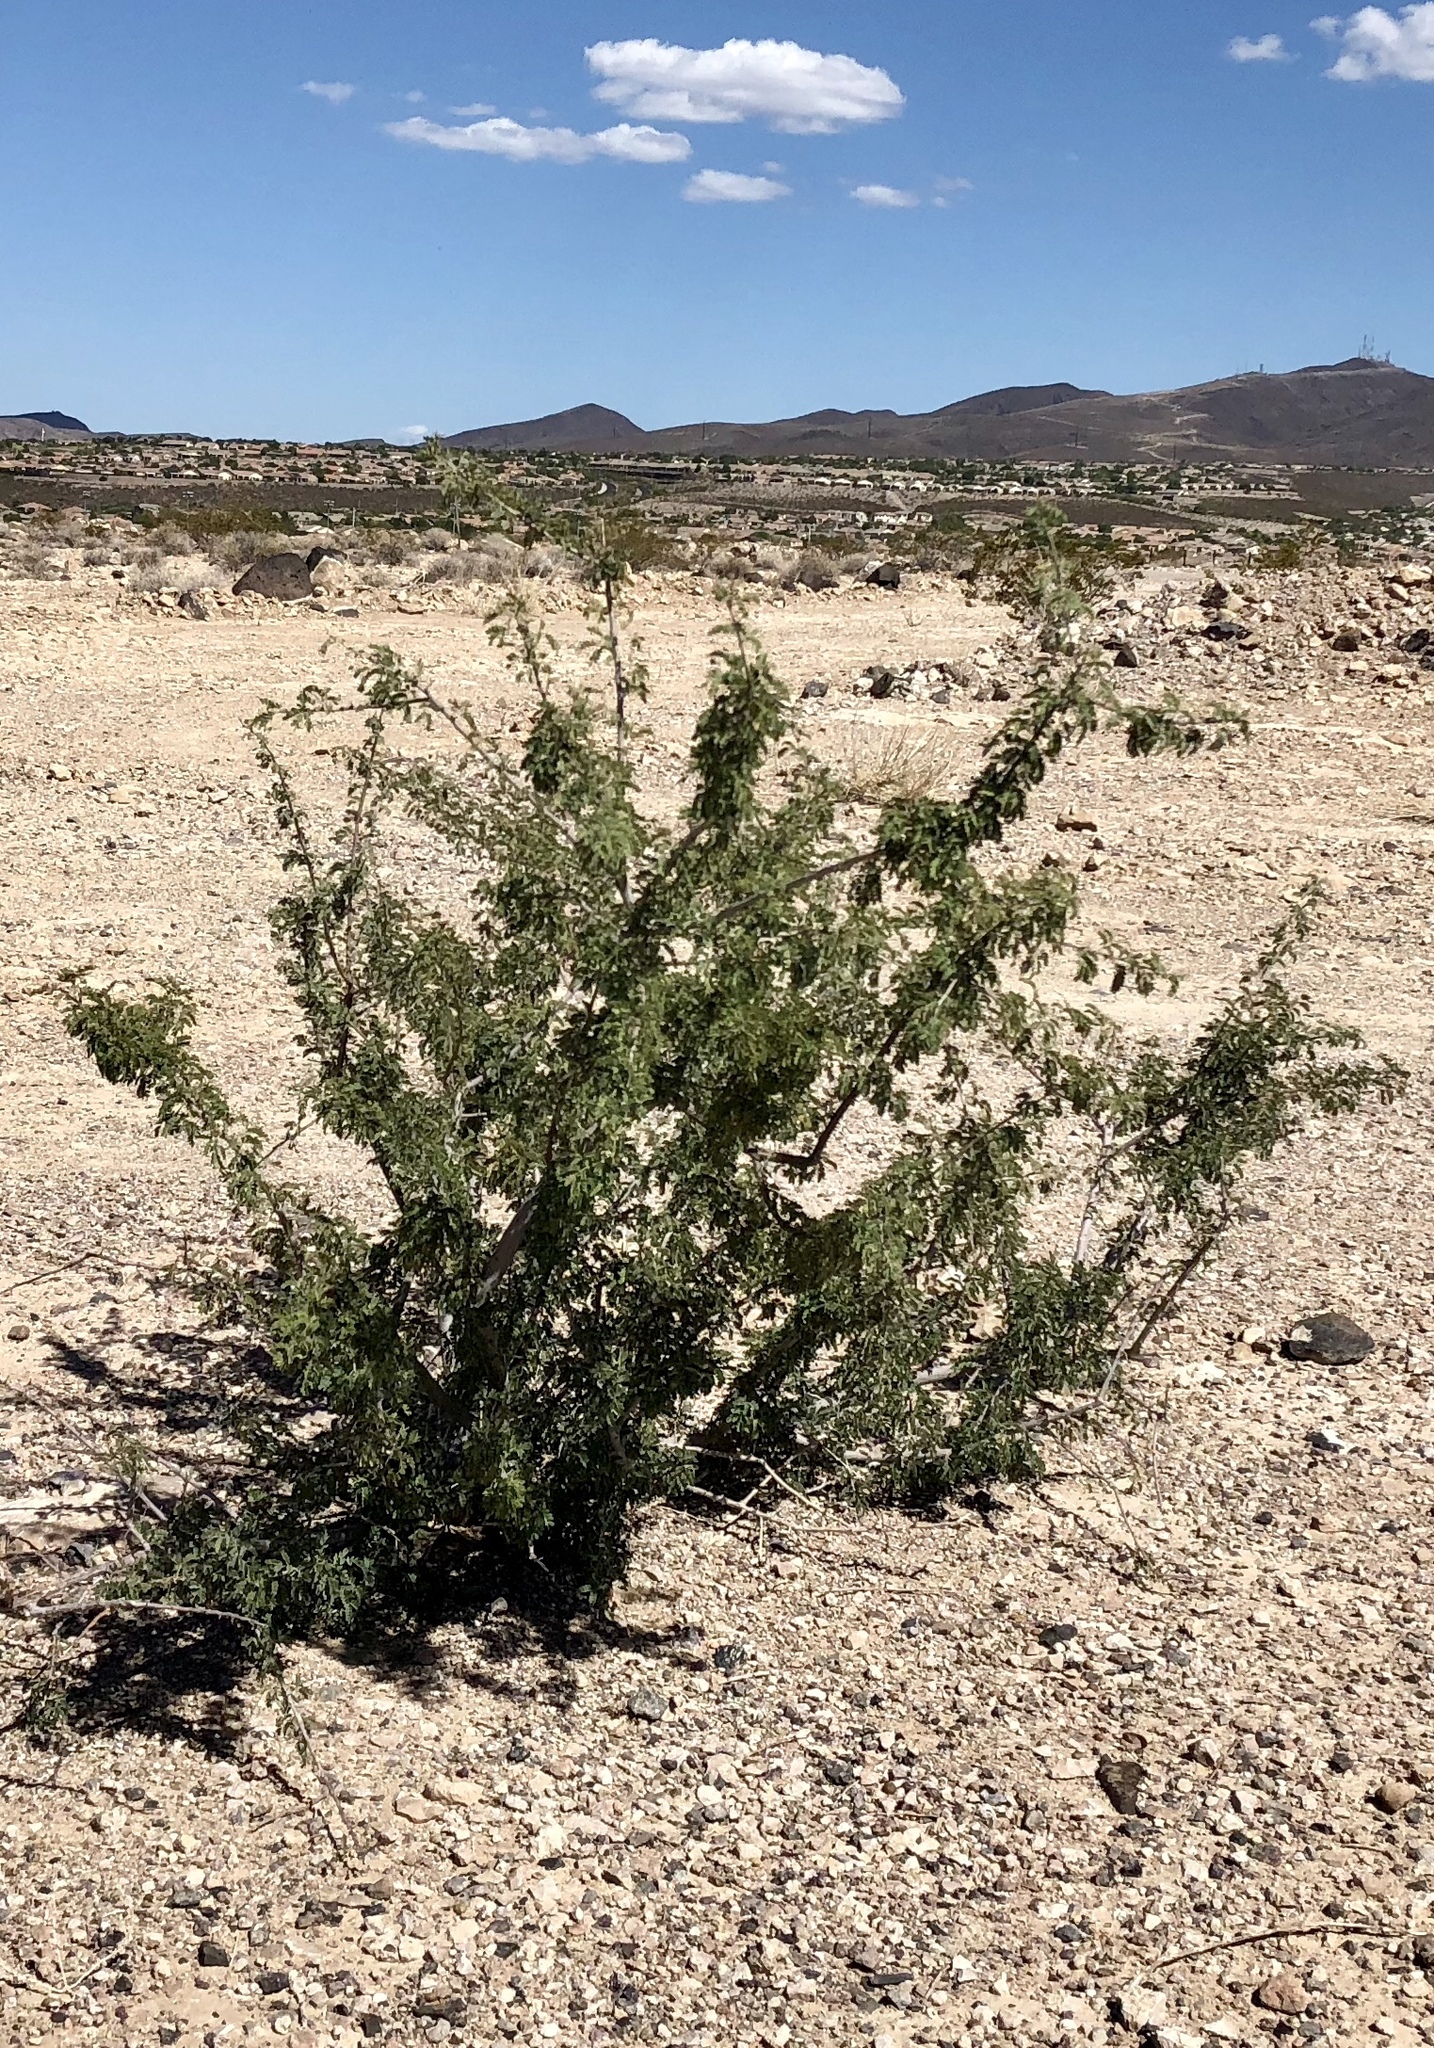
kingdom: Plantae
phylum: Tracheophyta
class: Magnoliopsida
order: Fabales
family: Fabaceae
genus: Senegalia
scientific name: Senegalia greggii
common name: Texas-mimosa
